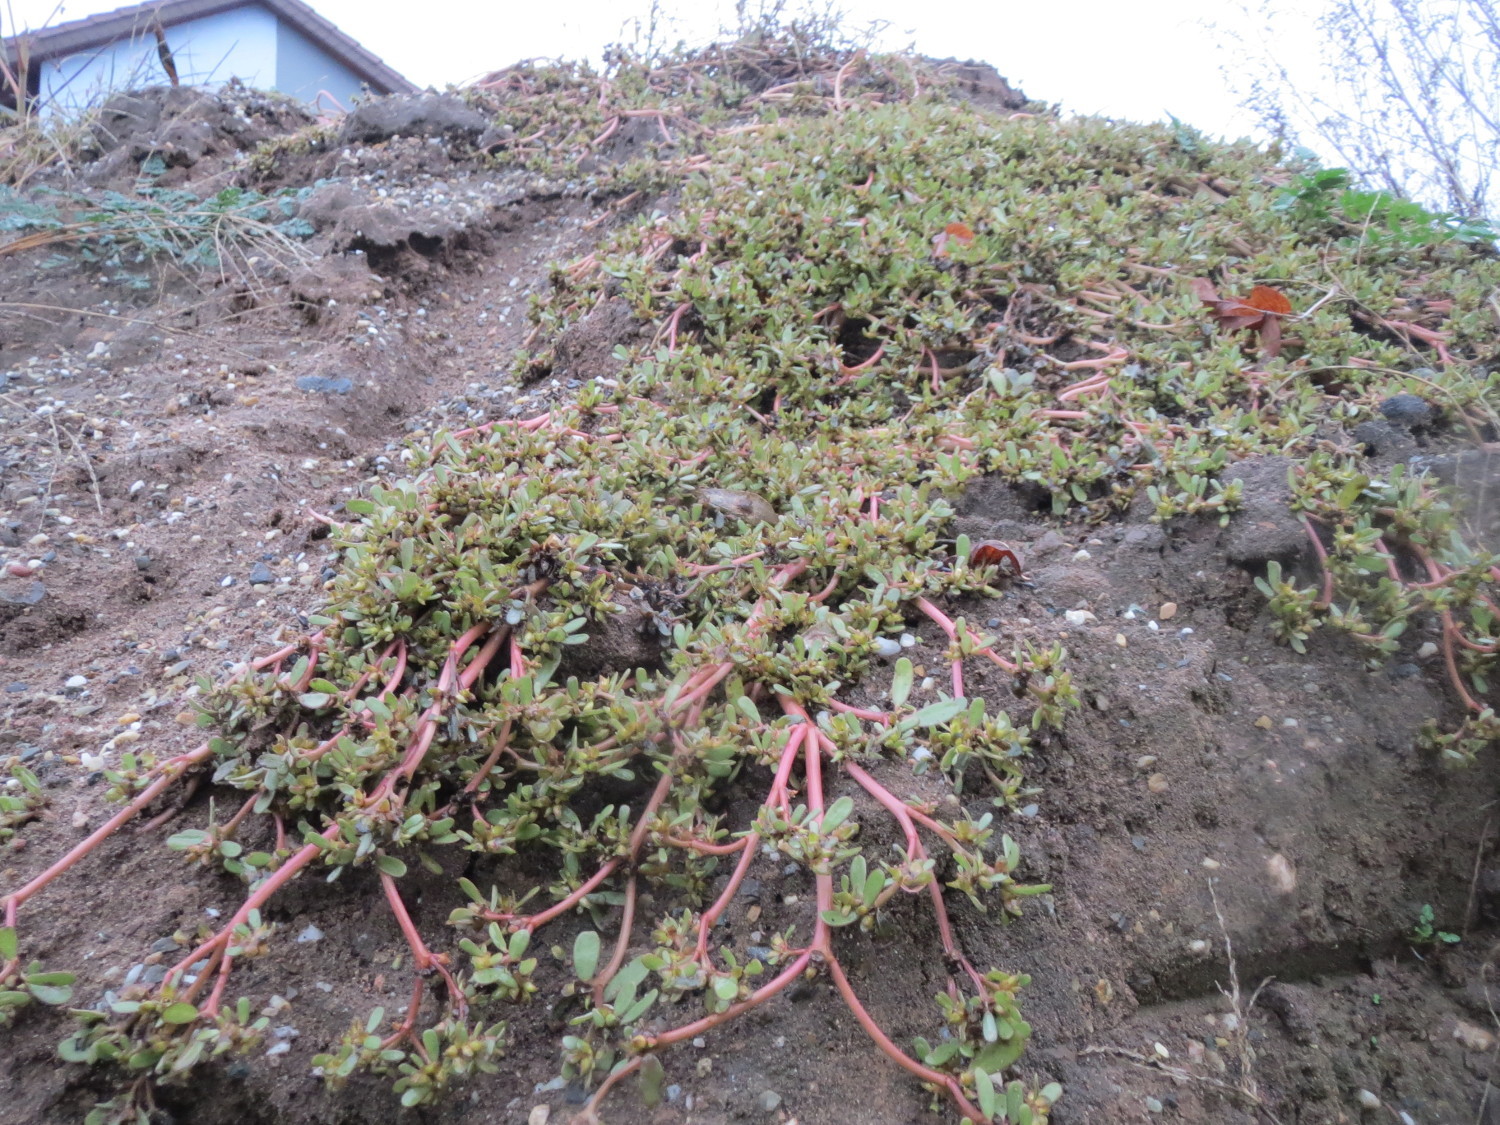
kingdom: Plantae
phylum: Tracheophyta
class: Magnoliopsida
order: Caryophyllales
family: Portulacaceae
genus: Portulaca
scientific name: Portulaca oleracea
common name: Common purslane
